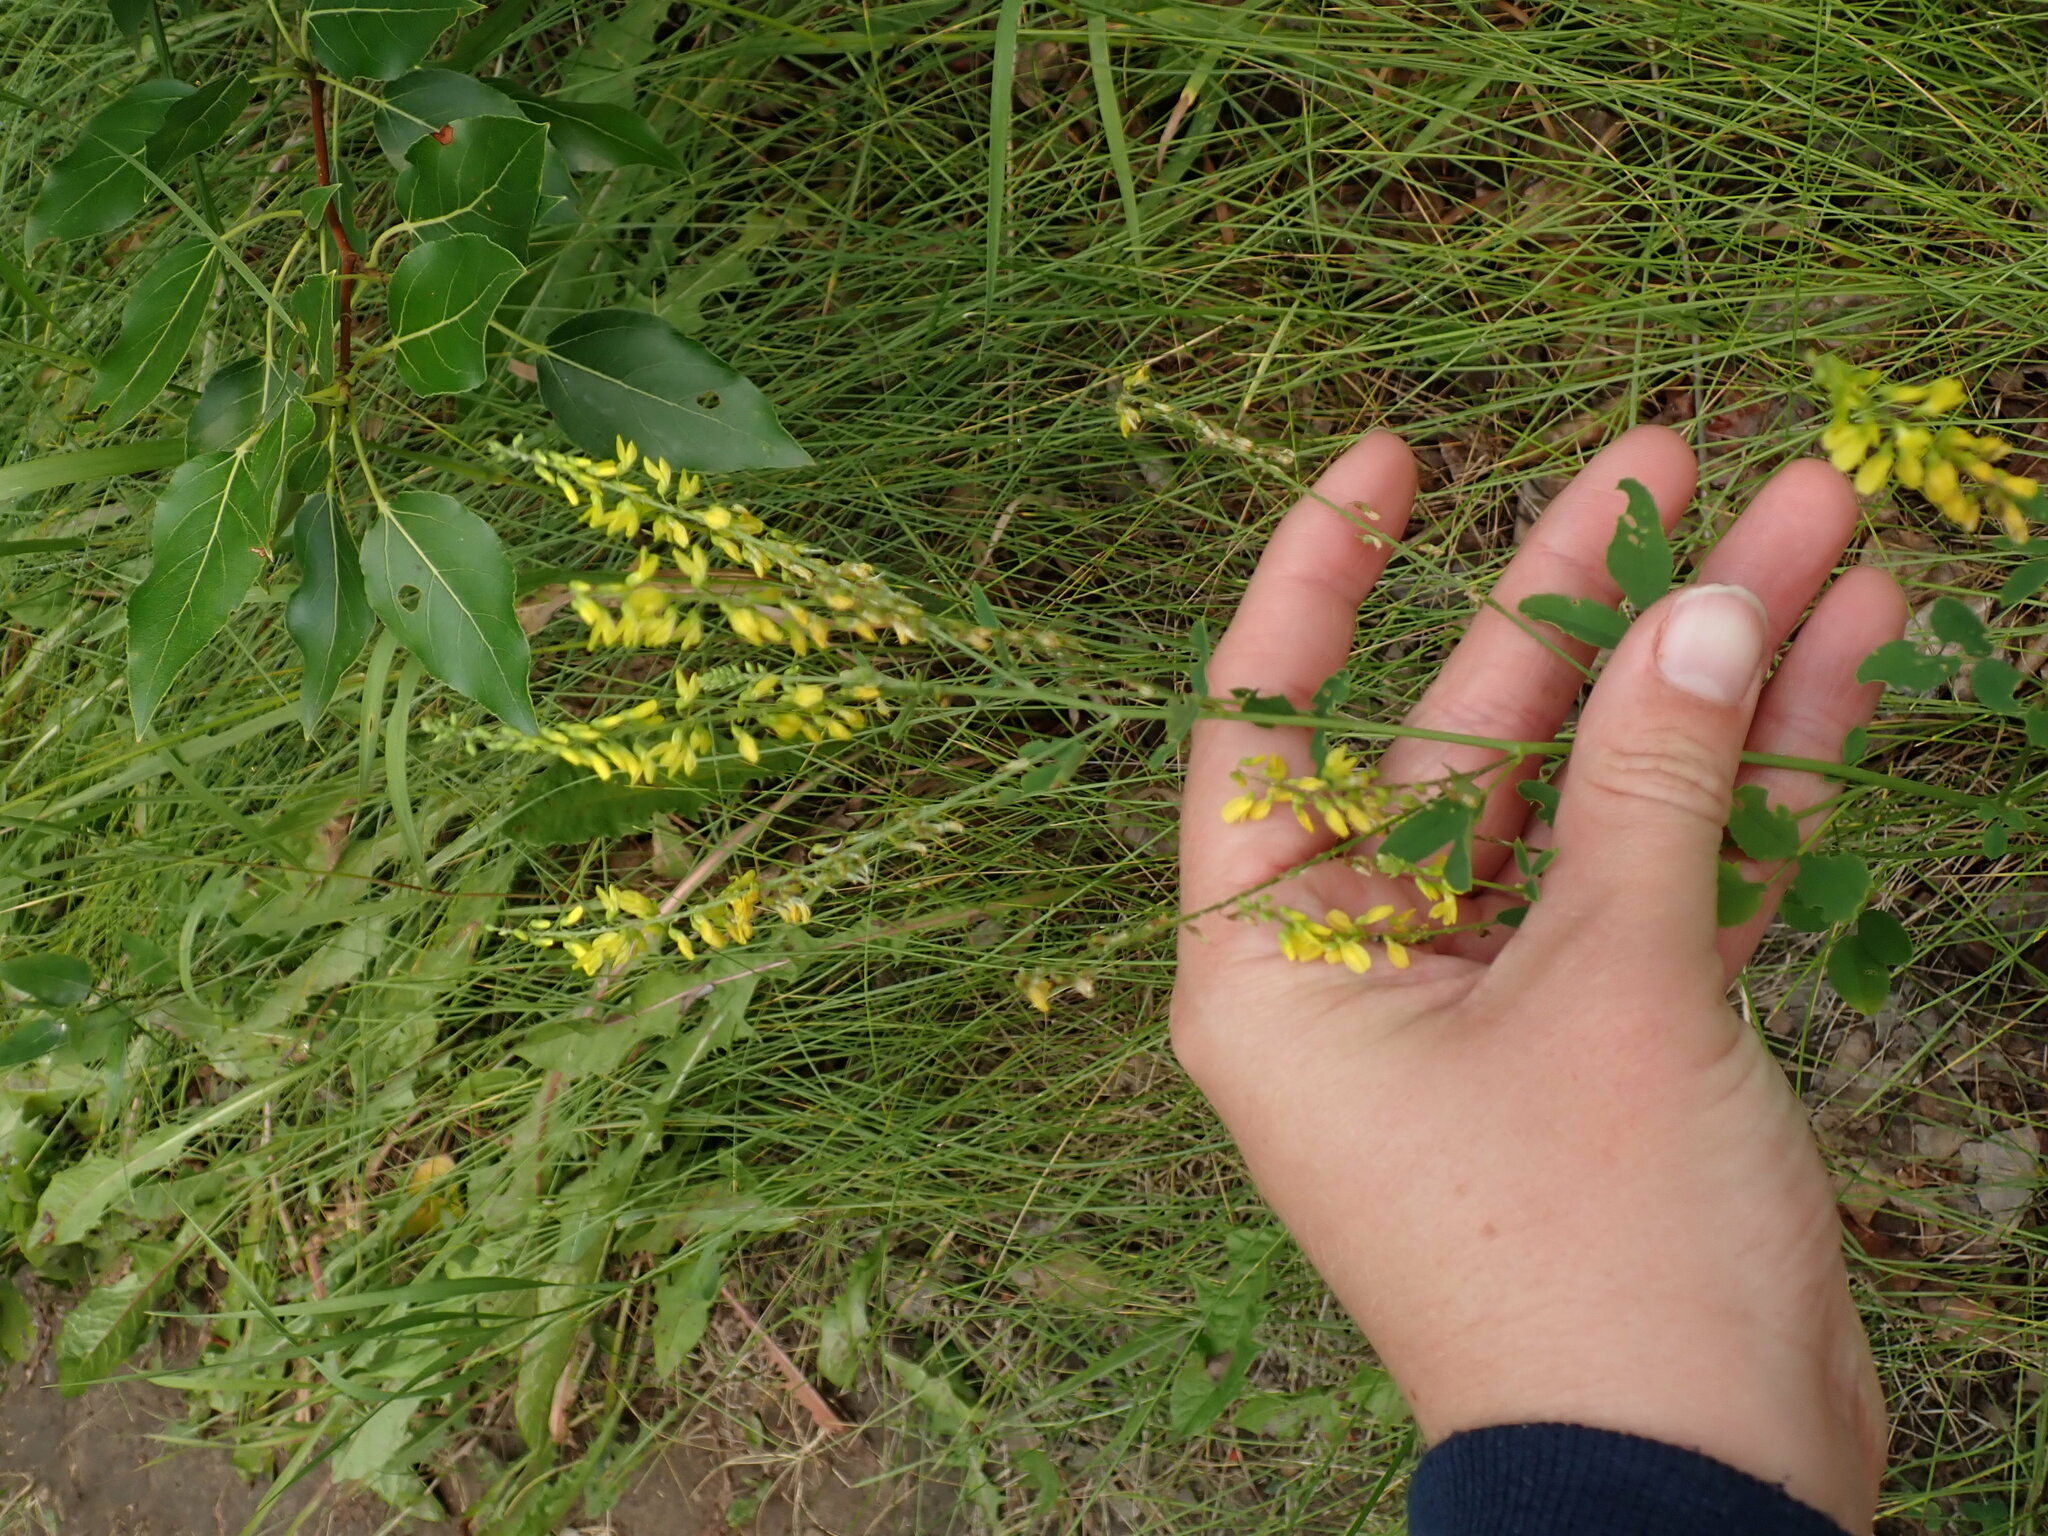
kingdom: Plantae
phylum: Tracheophyta
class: Magnoliopsida
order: Fabales
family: Fabaceae
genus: Melilotus
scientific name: Melilotus officinalis
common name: Sweetclover
